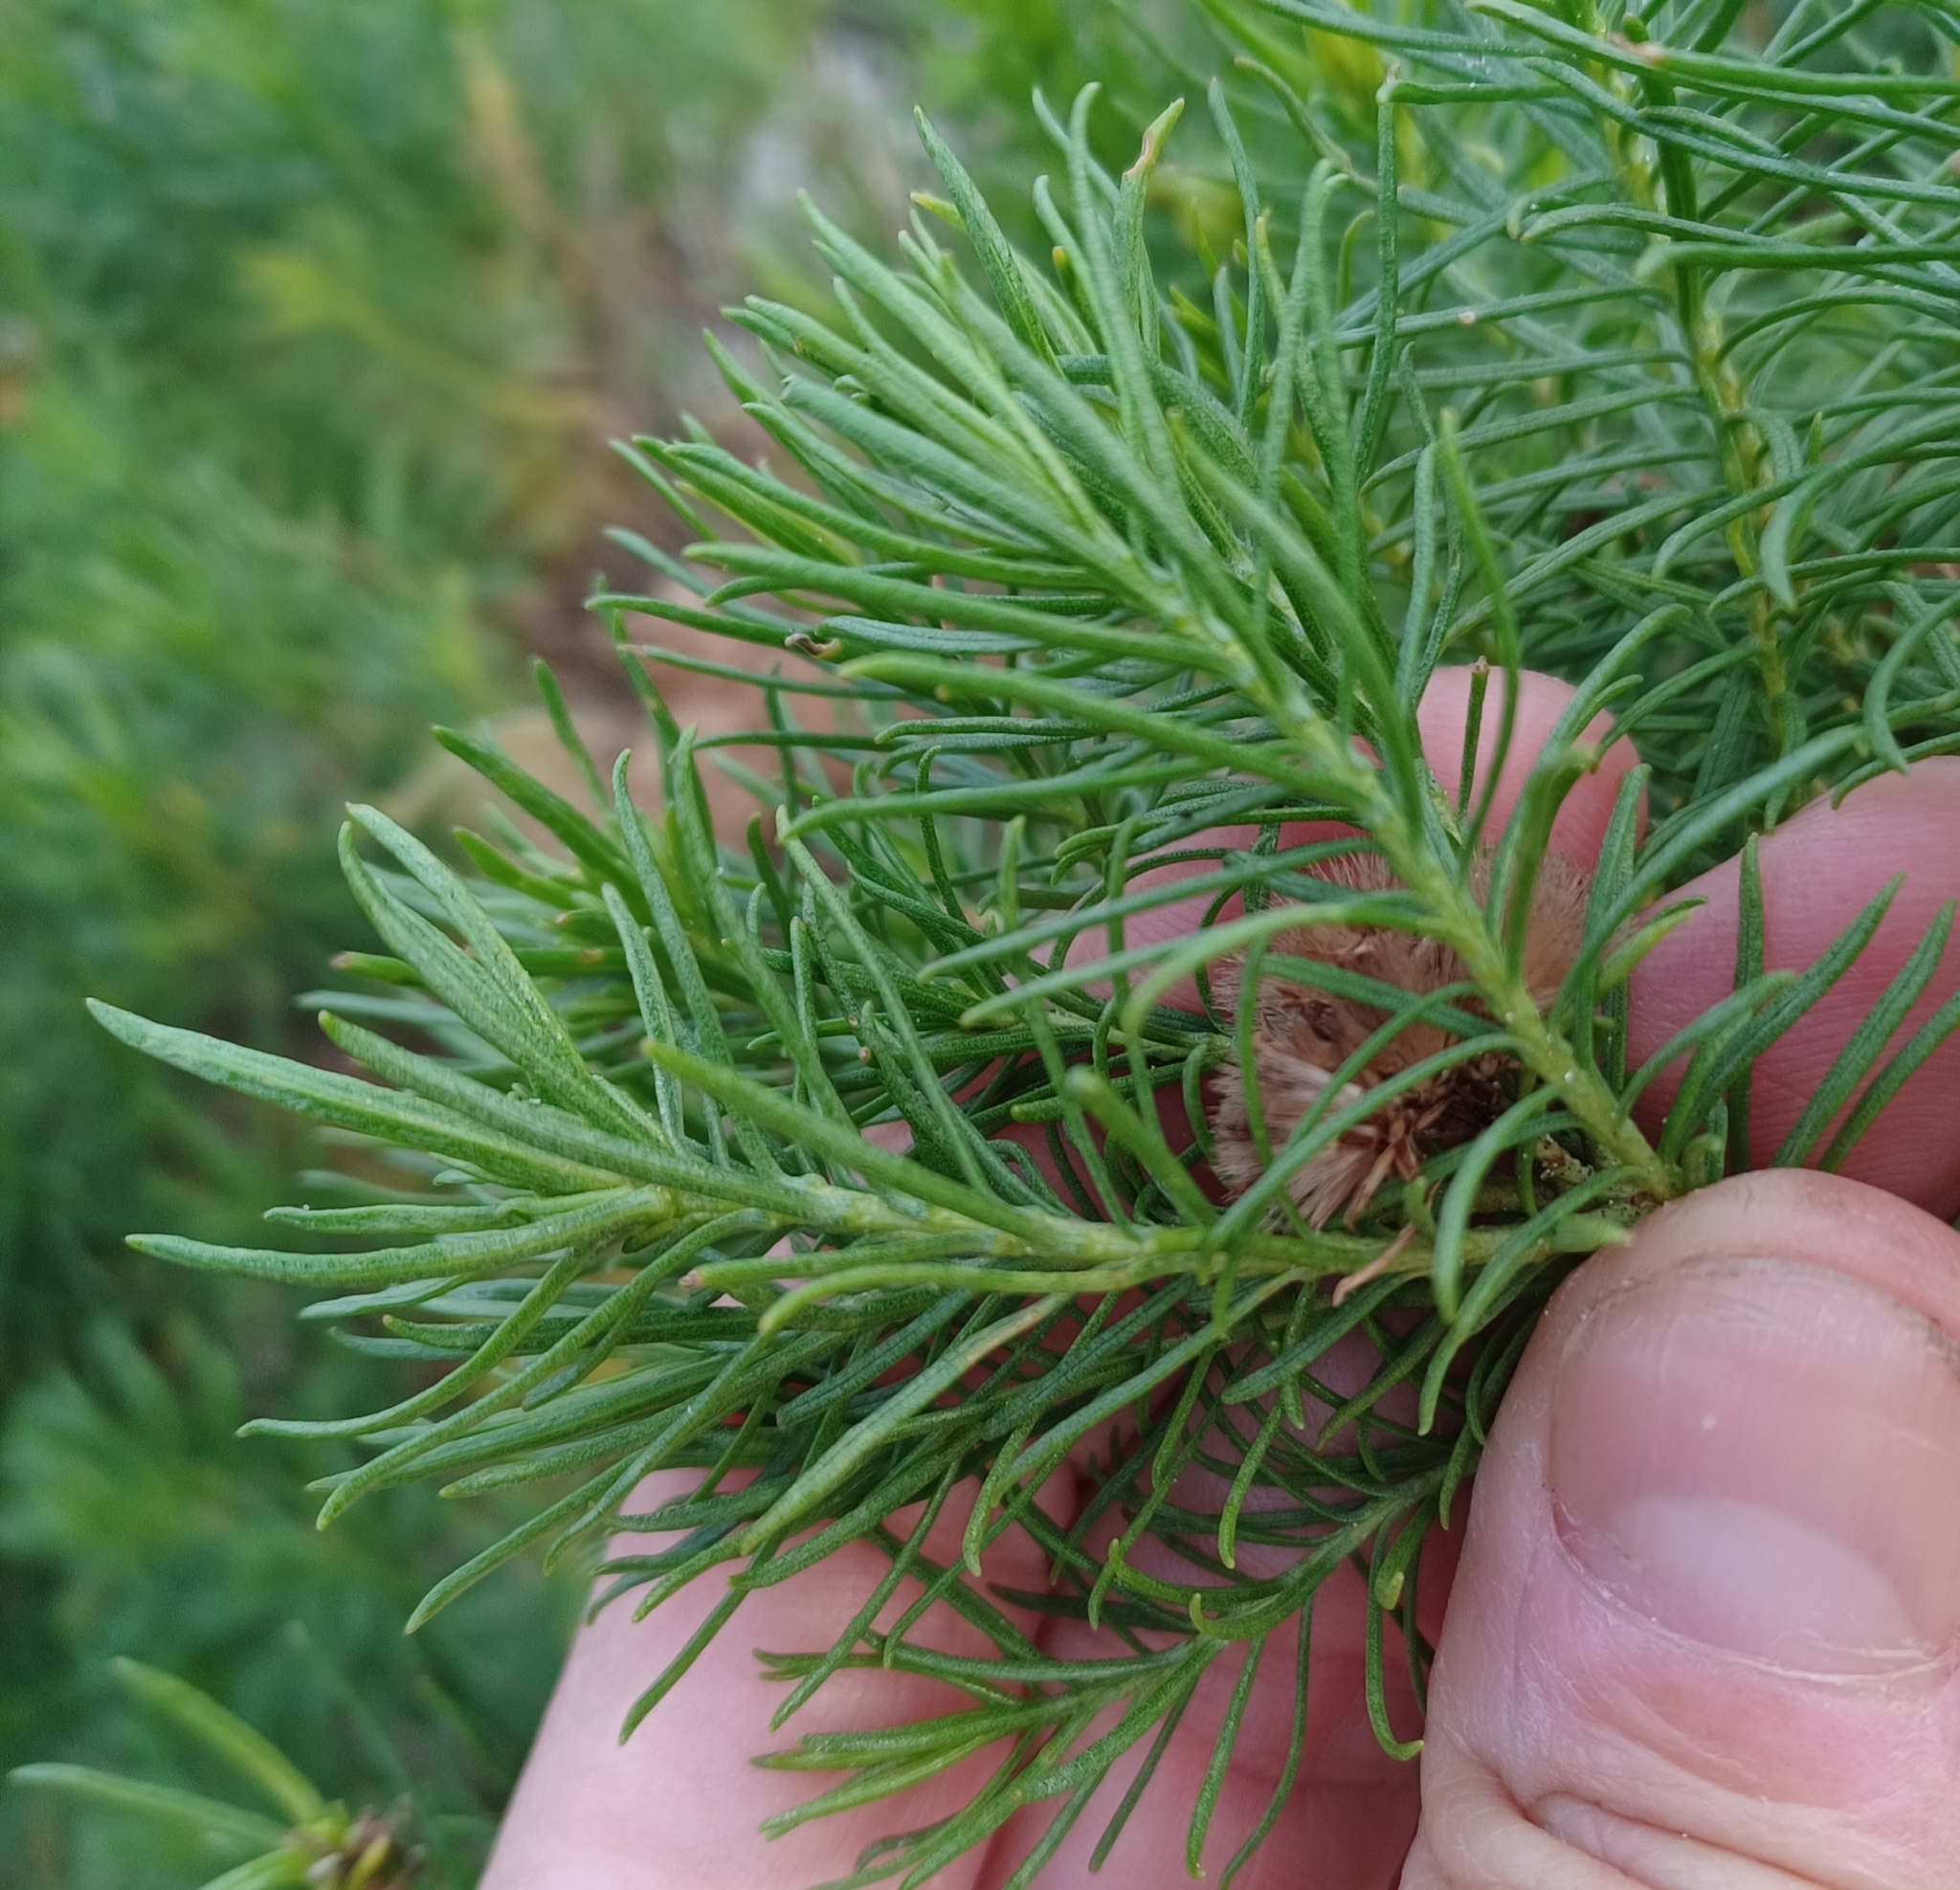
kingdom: Plantae
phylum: Tracheophyta
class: Magnoliopsida
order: Asterales
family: Asteraceae
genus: Olearia
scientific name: Olearia glutinosa
